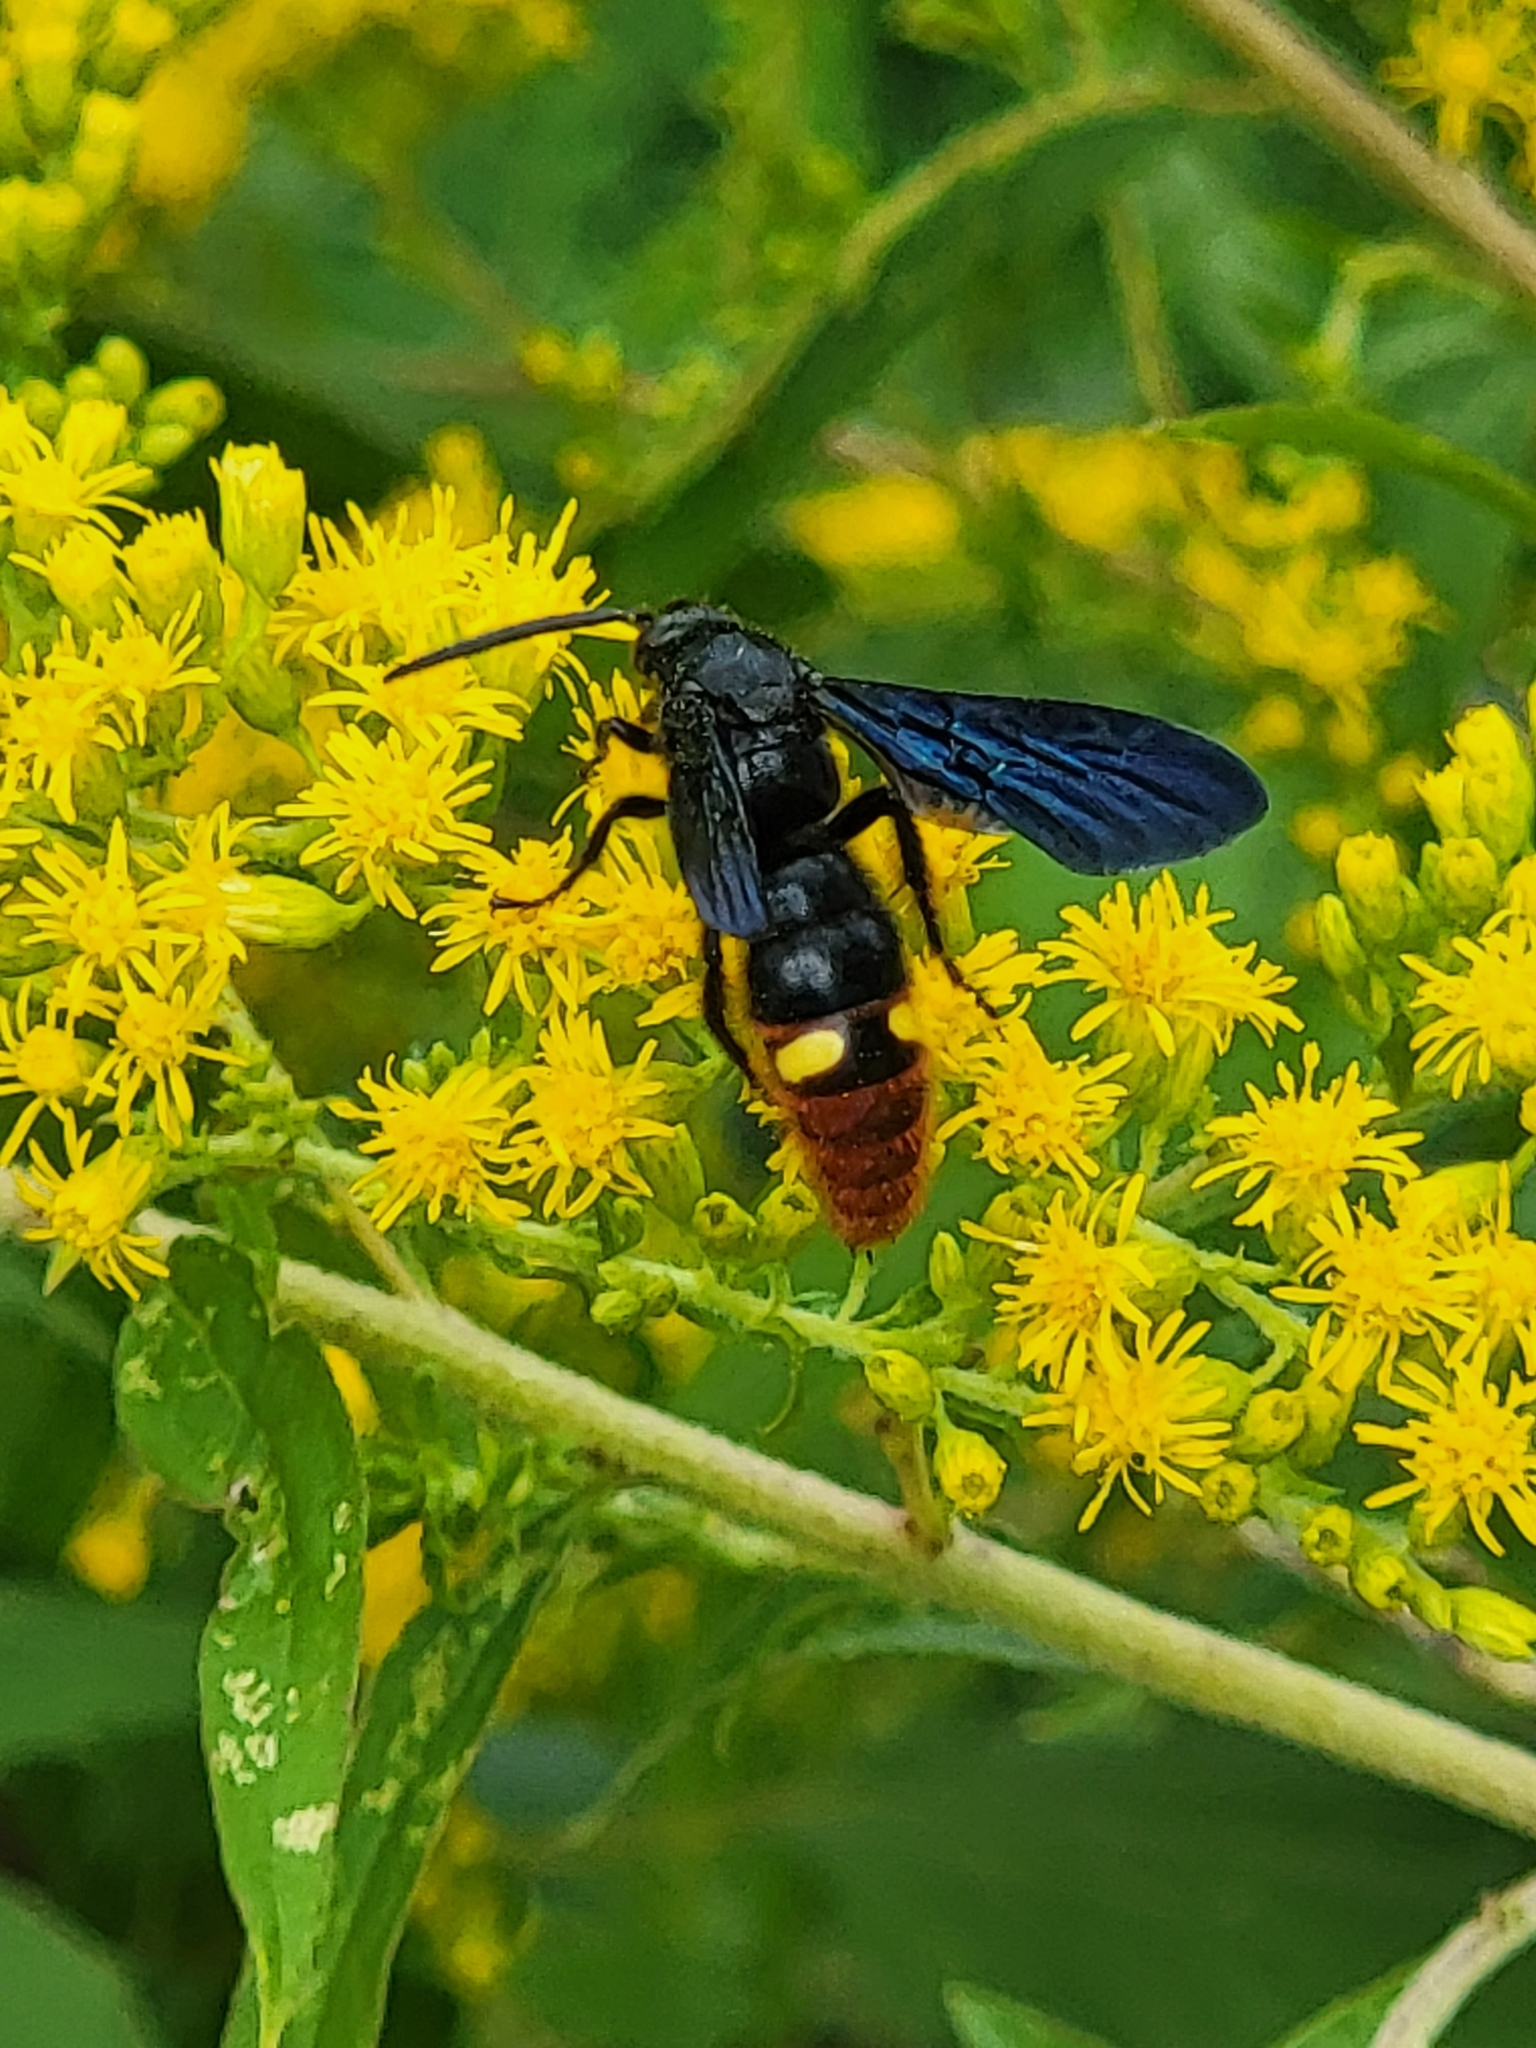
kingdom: Animalia
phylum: Arthropoda
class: Insecta
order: Hymenoptera
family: Scoliidae
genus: Scolia
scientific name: Scolia dubia
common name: Blue-winged scoliid wasp
